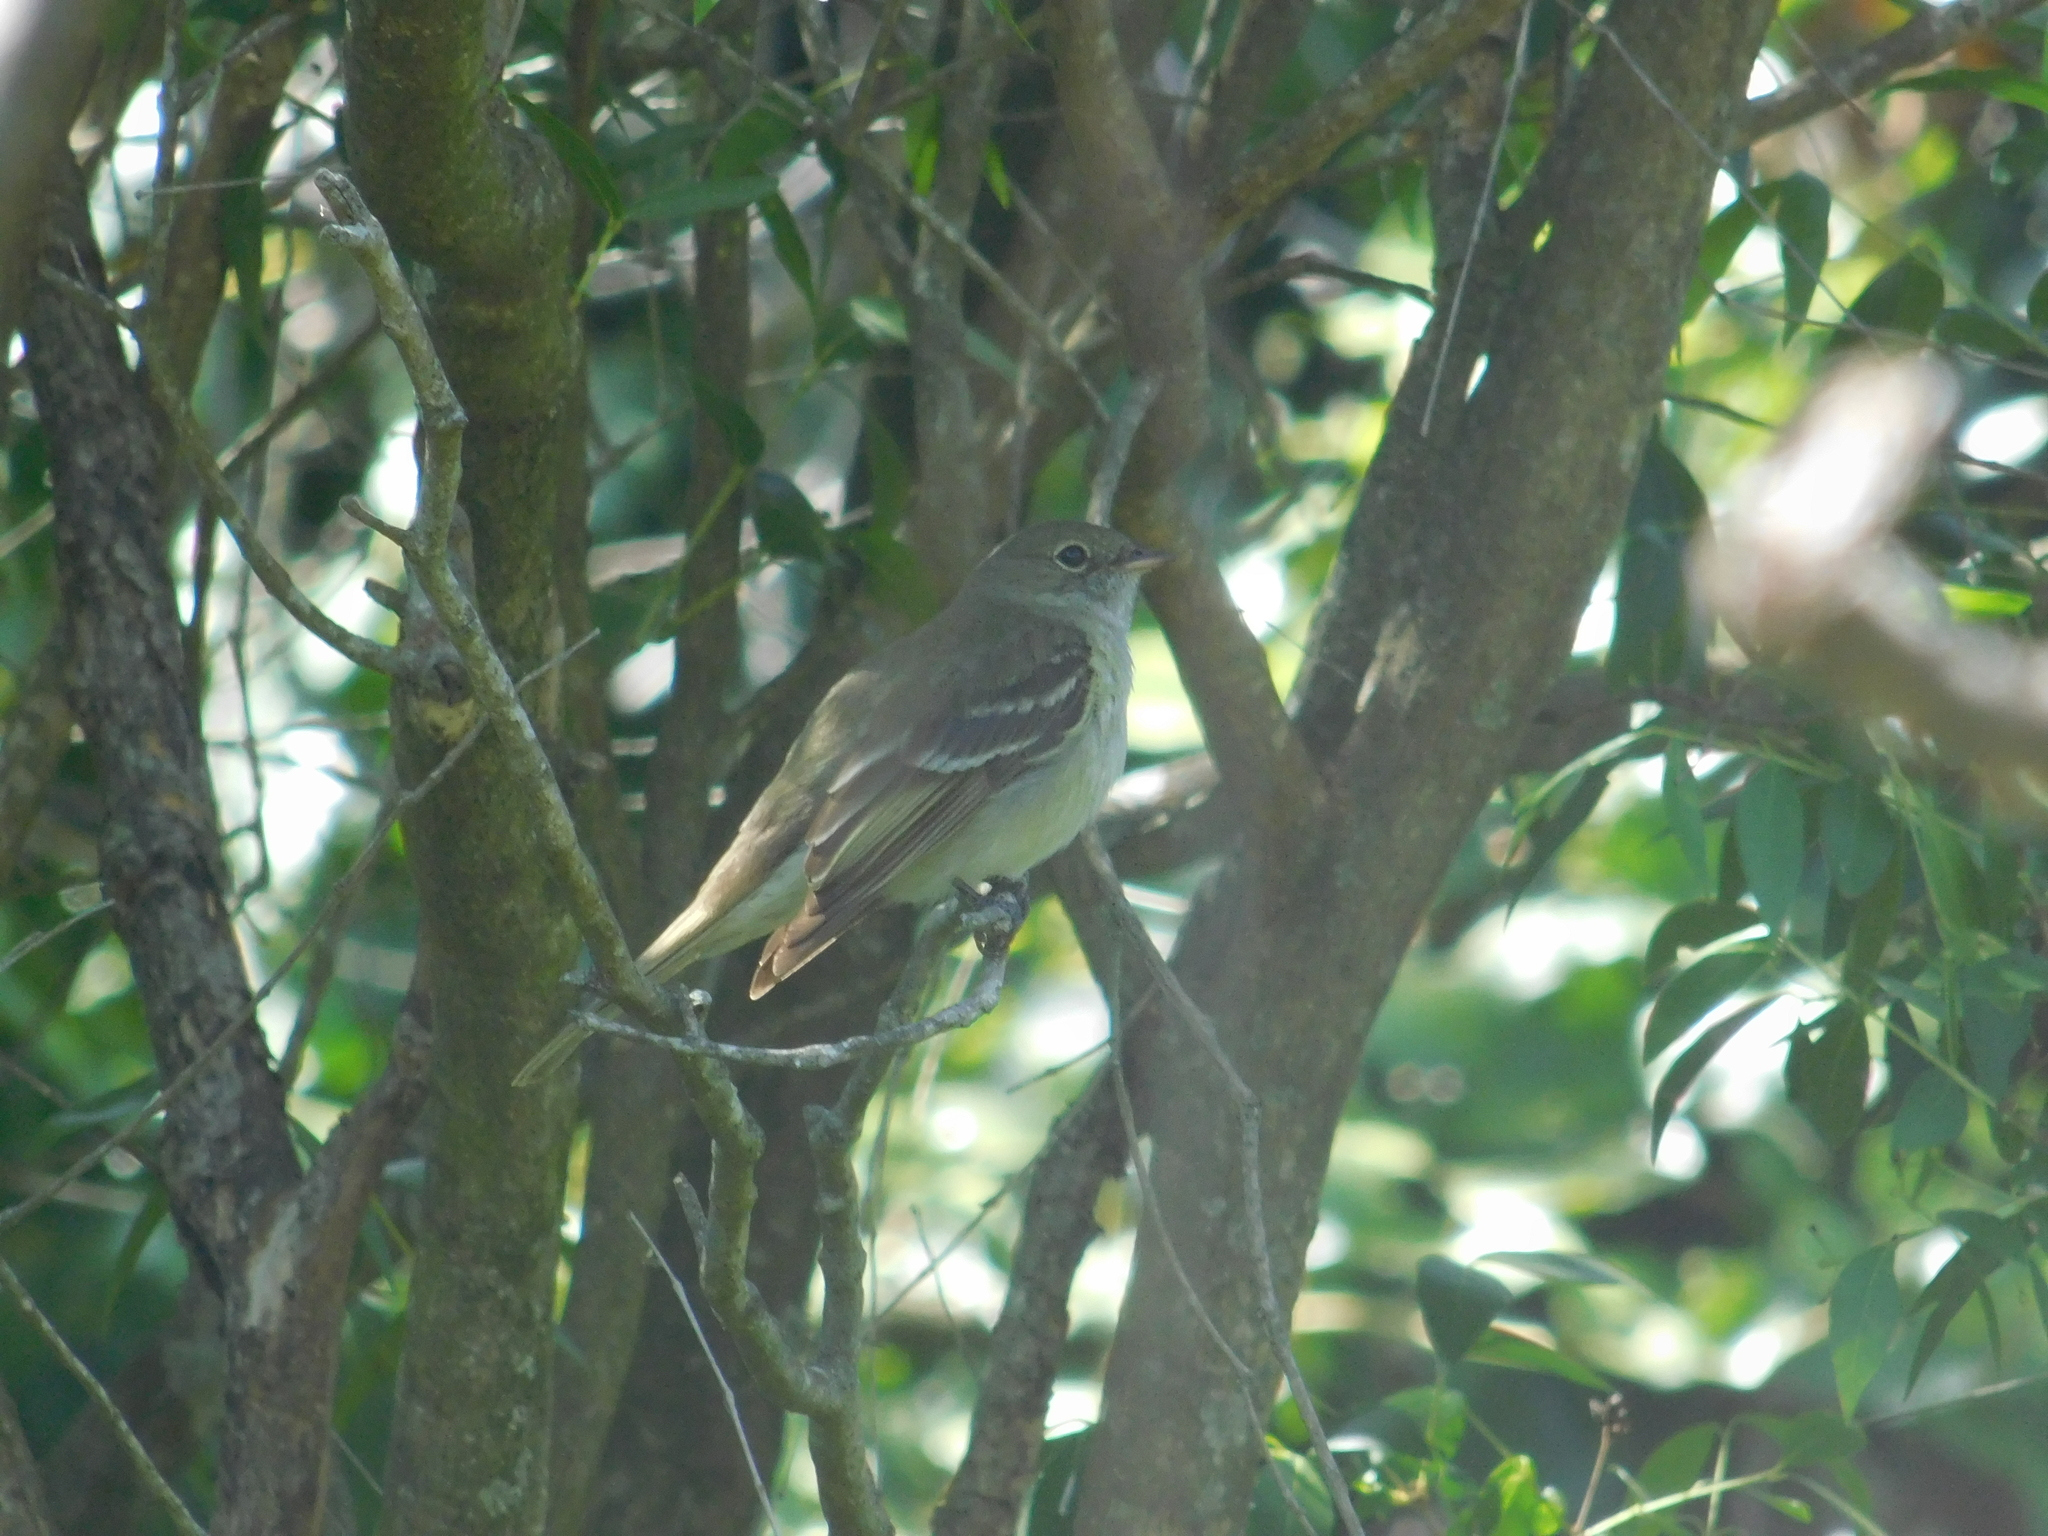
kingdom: Animalia
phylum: Chordata
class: Aves
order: Passeriformes
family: Tyrannidae
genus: Elaenia
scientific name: Elaenia mesoleuca
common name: Olivaceous elaenia
